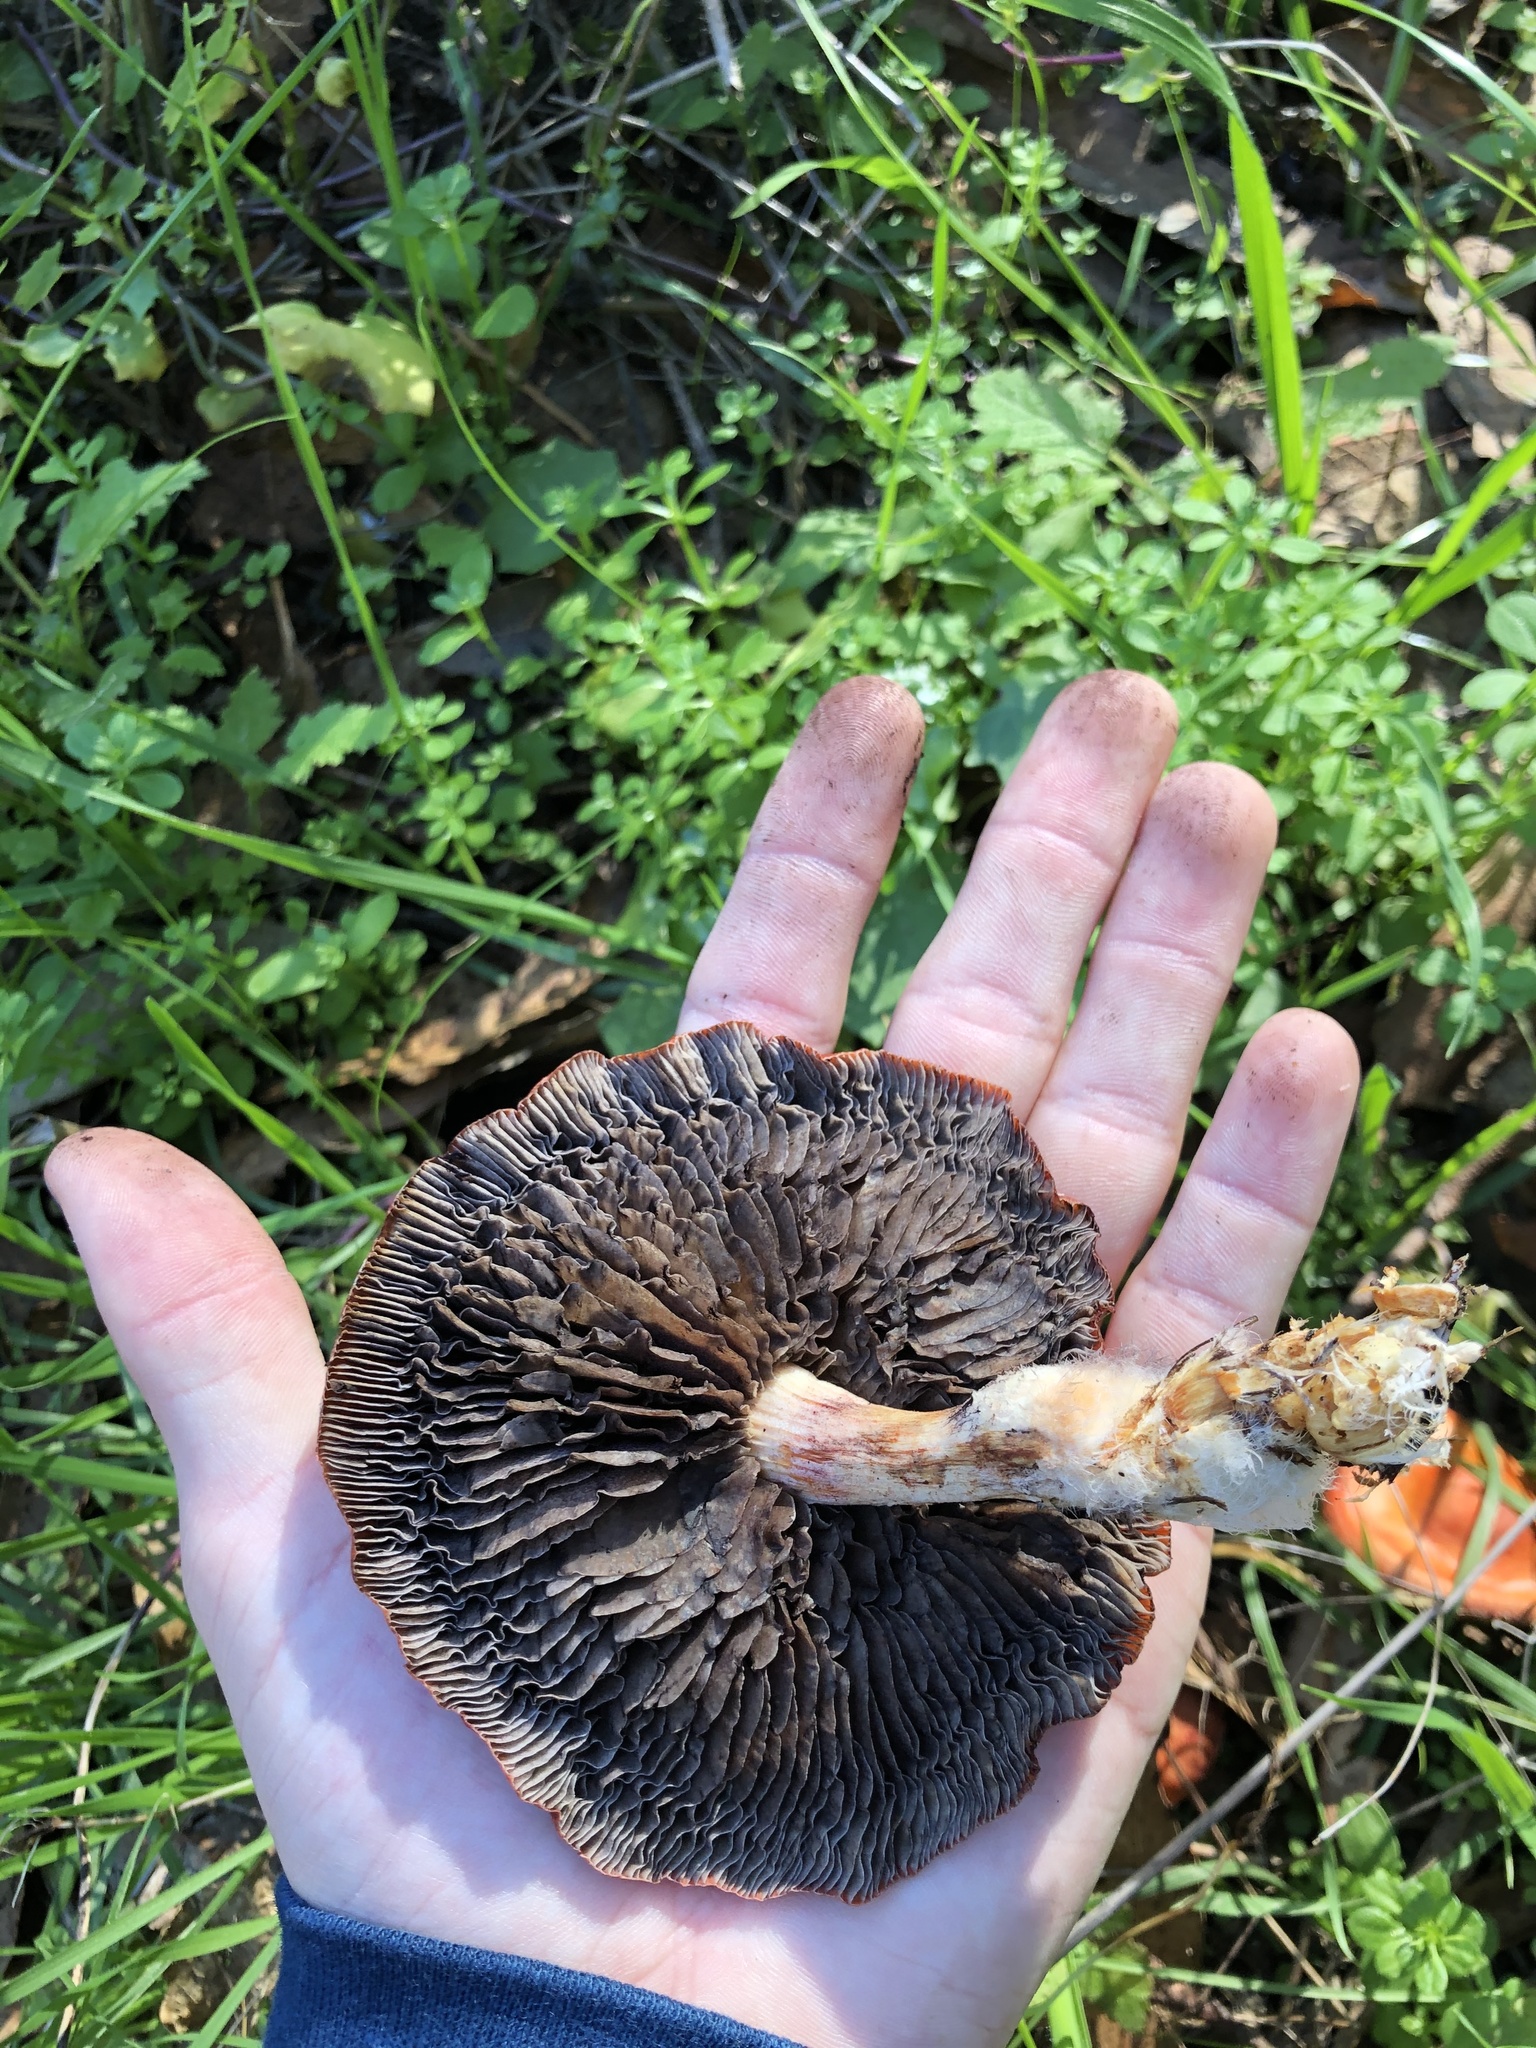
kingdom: Fungi
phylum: Basidiomycota
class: Agaricomycetes
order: Agaricales
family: Strophariaceae
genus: Leratiomyces
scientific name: Leratiomyces ceres
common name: Redlead roundhead
